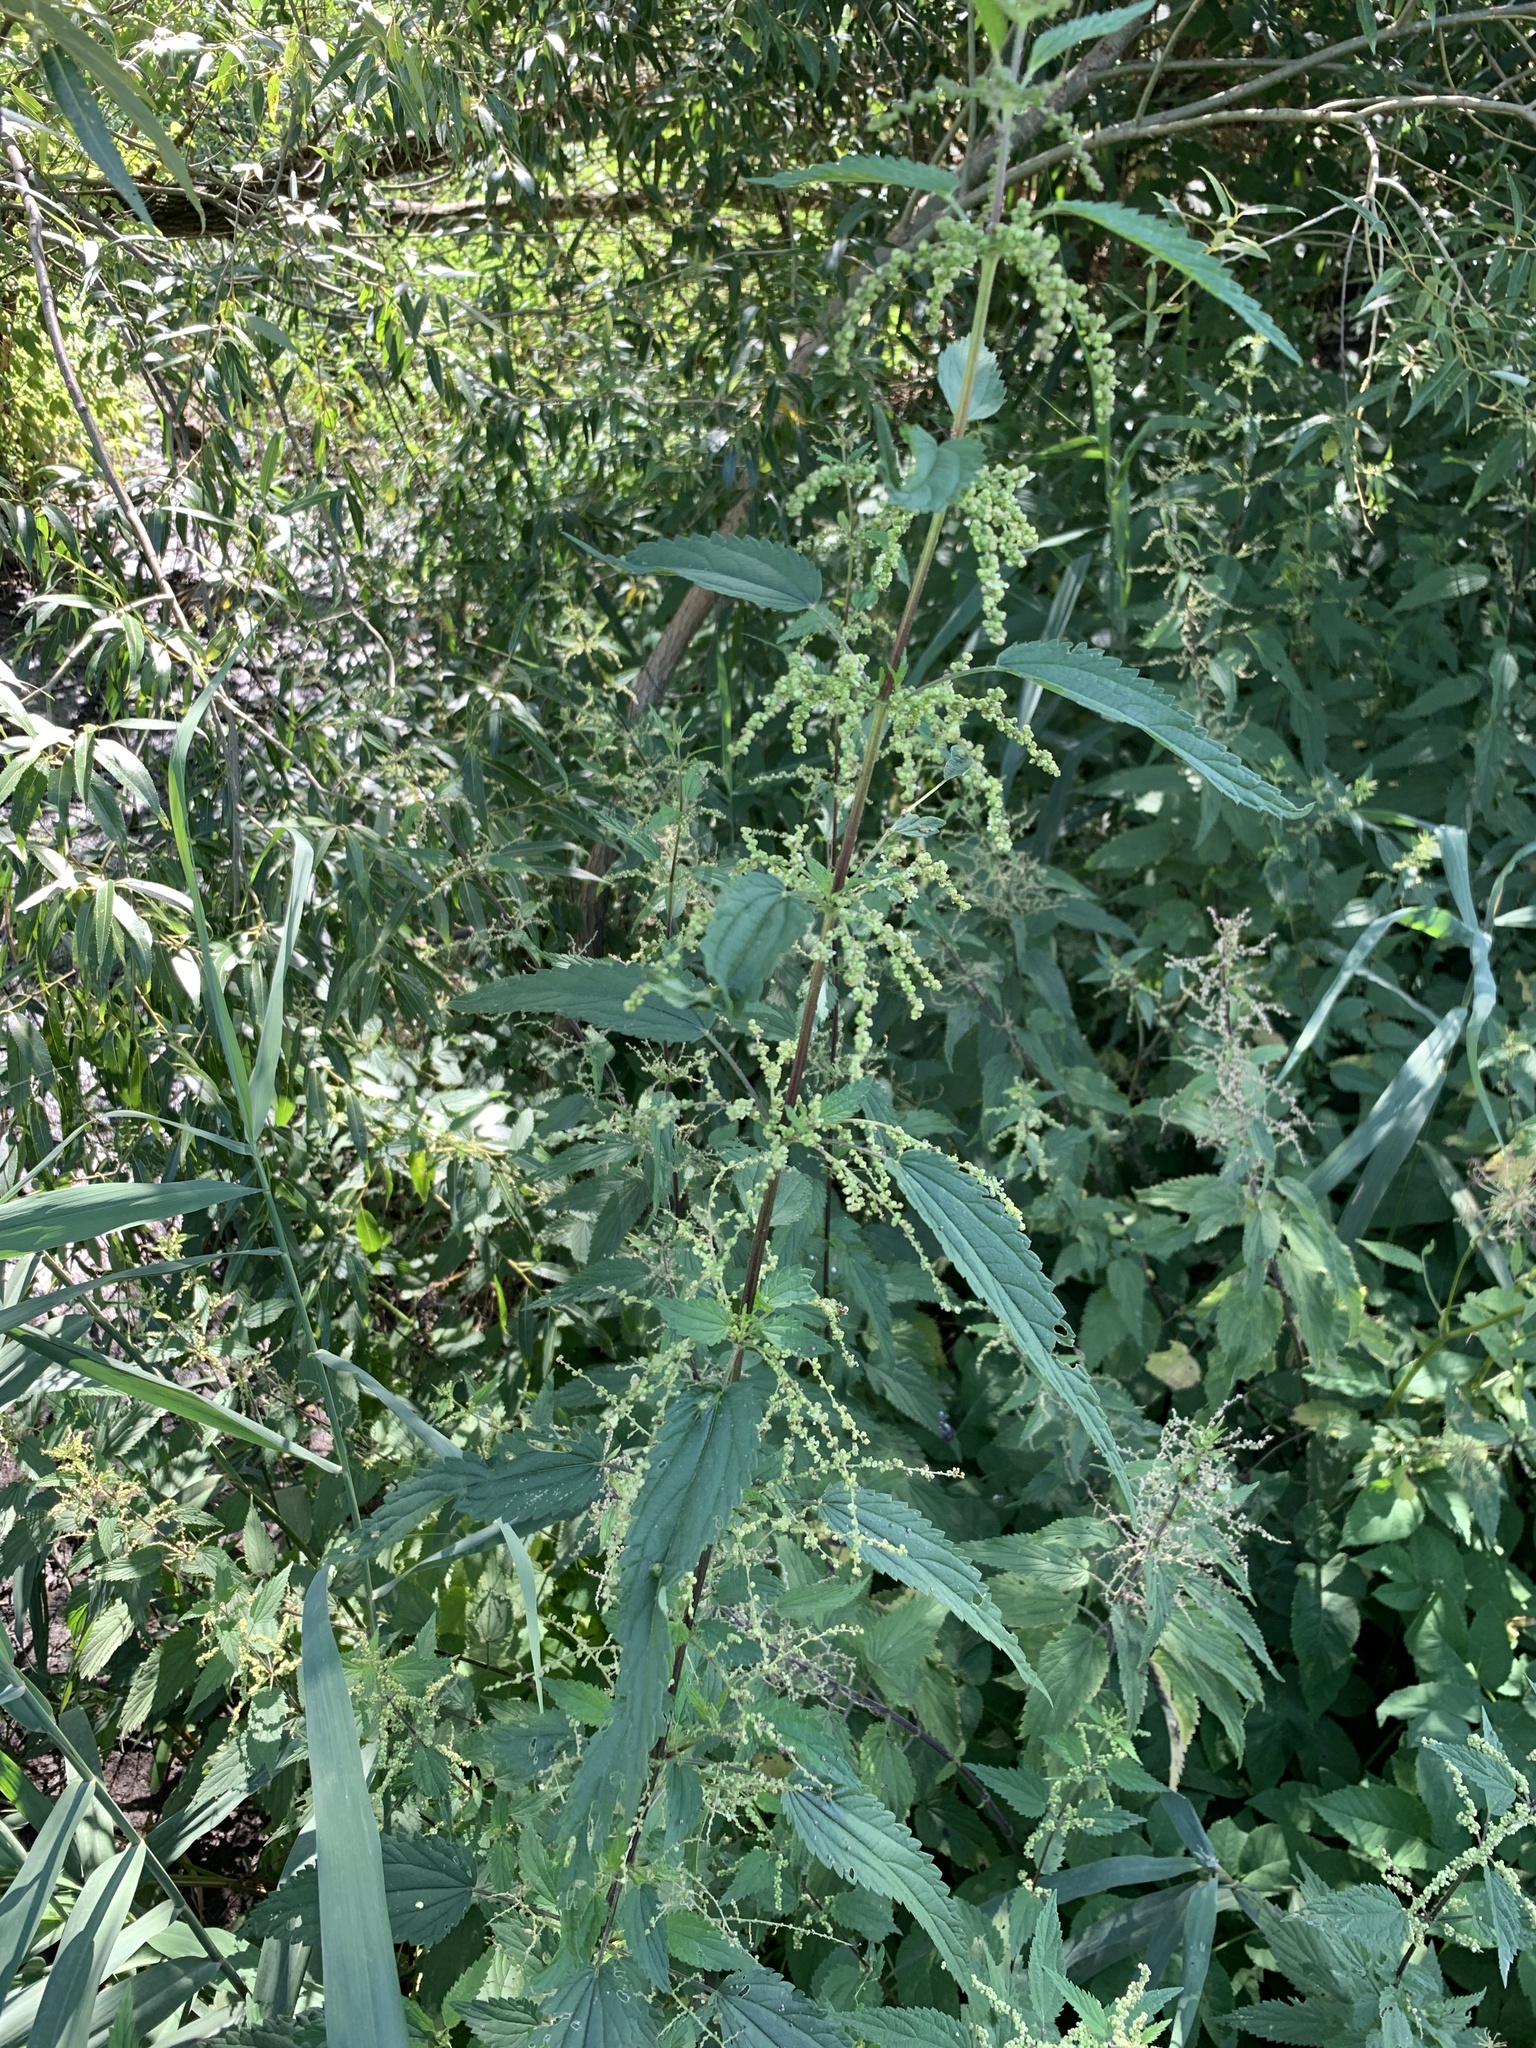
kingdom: Plantae
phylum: Tracheophyta
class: Magnoliopsida
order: Rosales
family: Urticaceae
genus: Urtica
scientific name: Urtica dioica
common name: Common nettle
